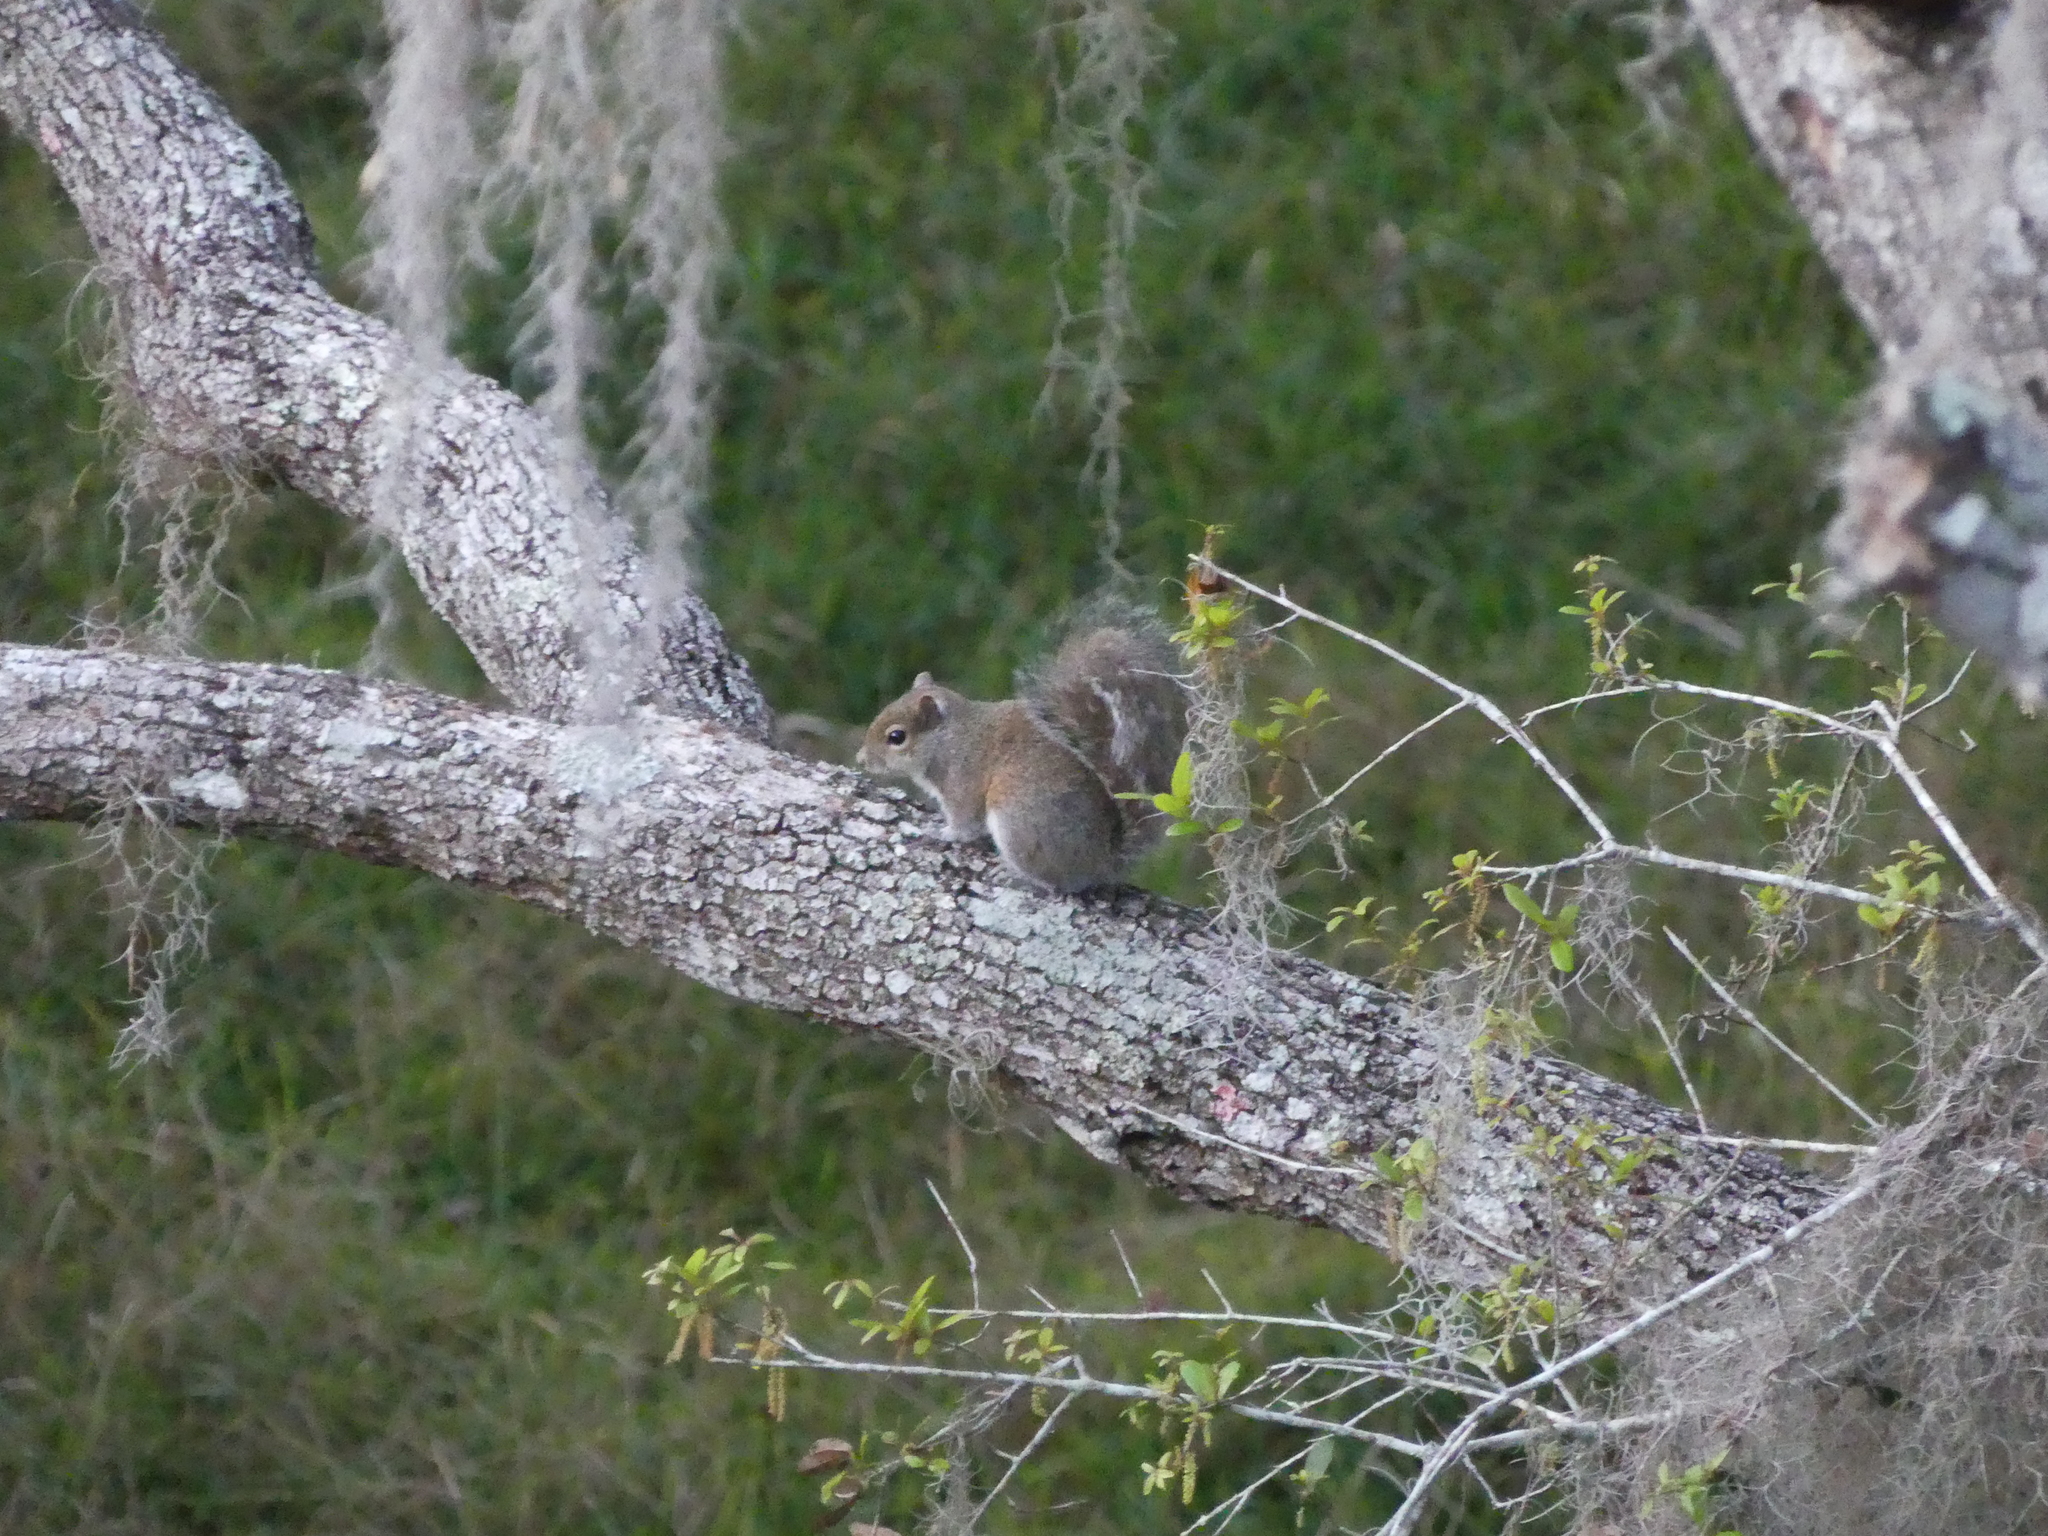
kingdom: Animalia
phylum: Chordata
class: Mammalia
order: Rodentia
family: Sciuridae
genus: Sciurus
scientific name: Sciurus carolinensis
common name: Eastern gray squirrel
